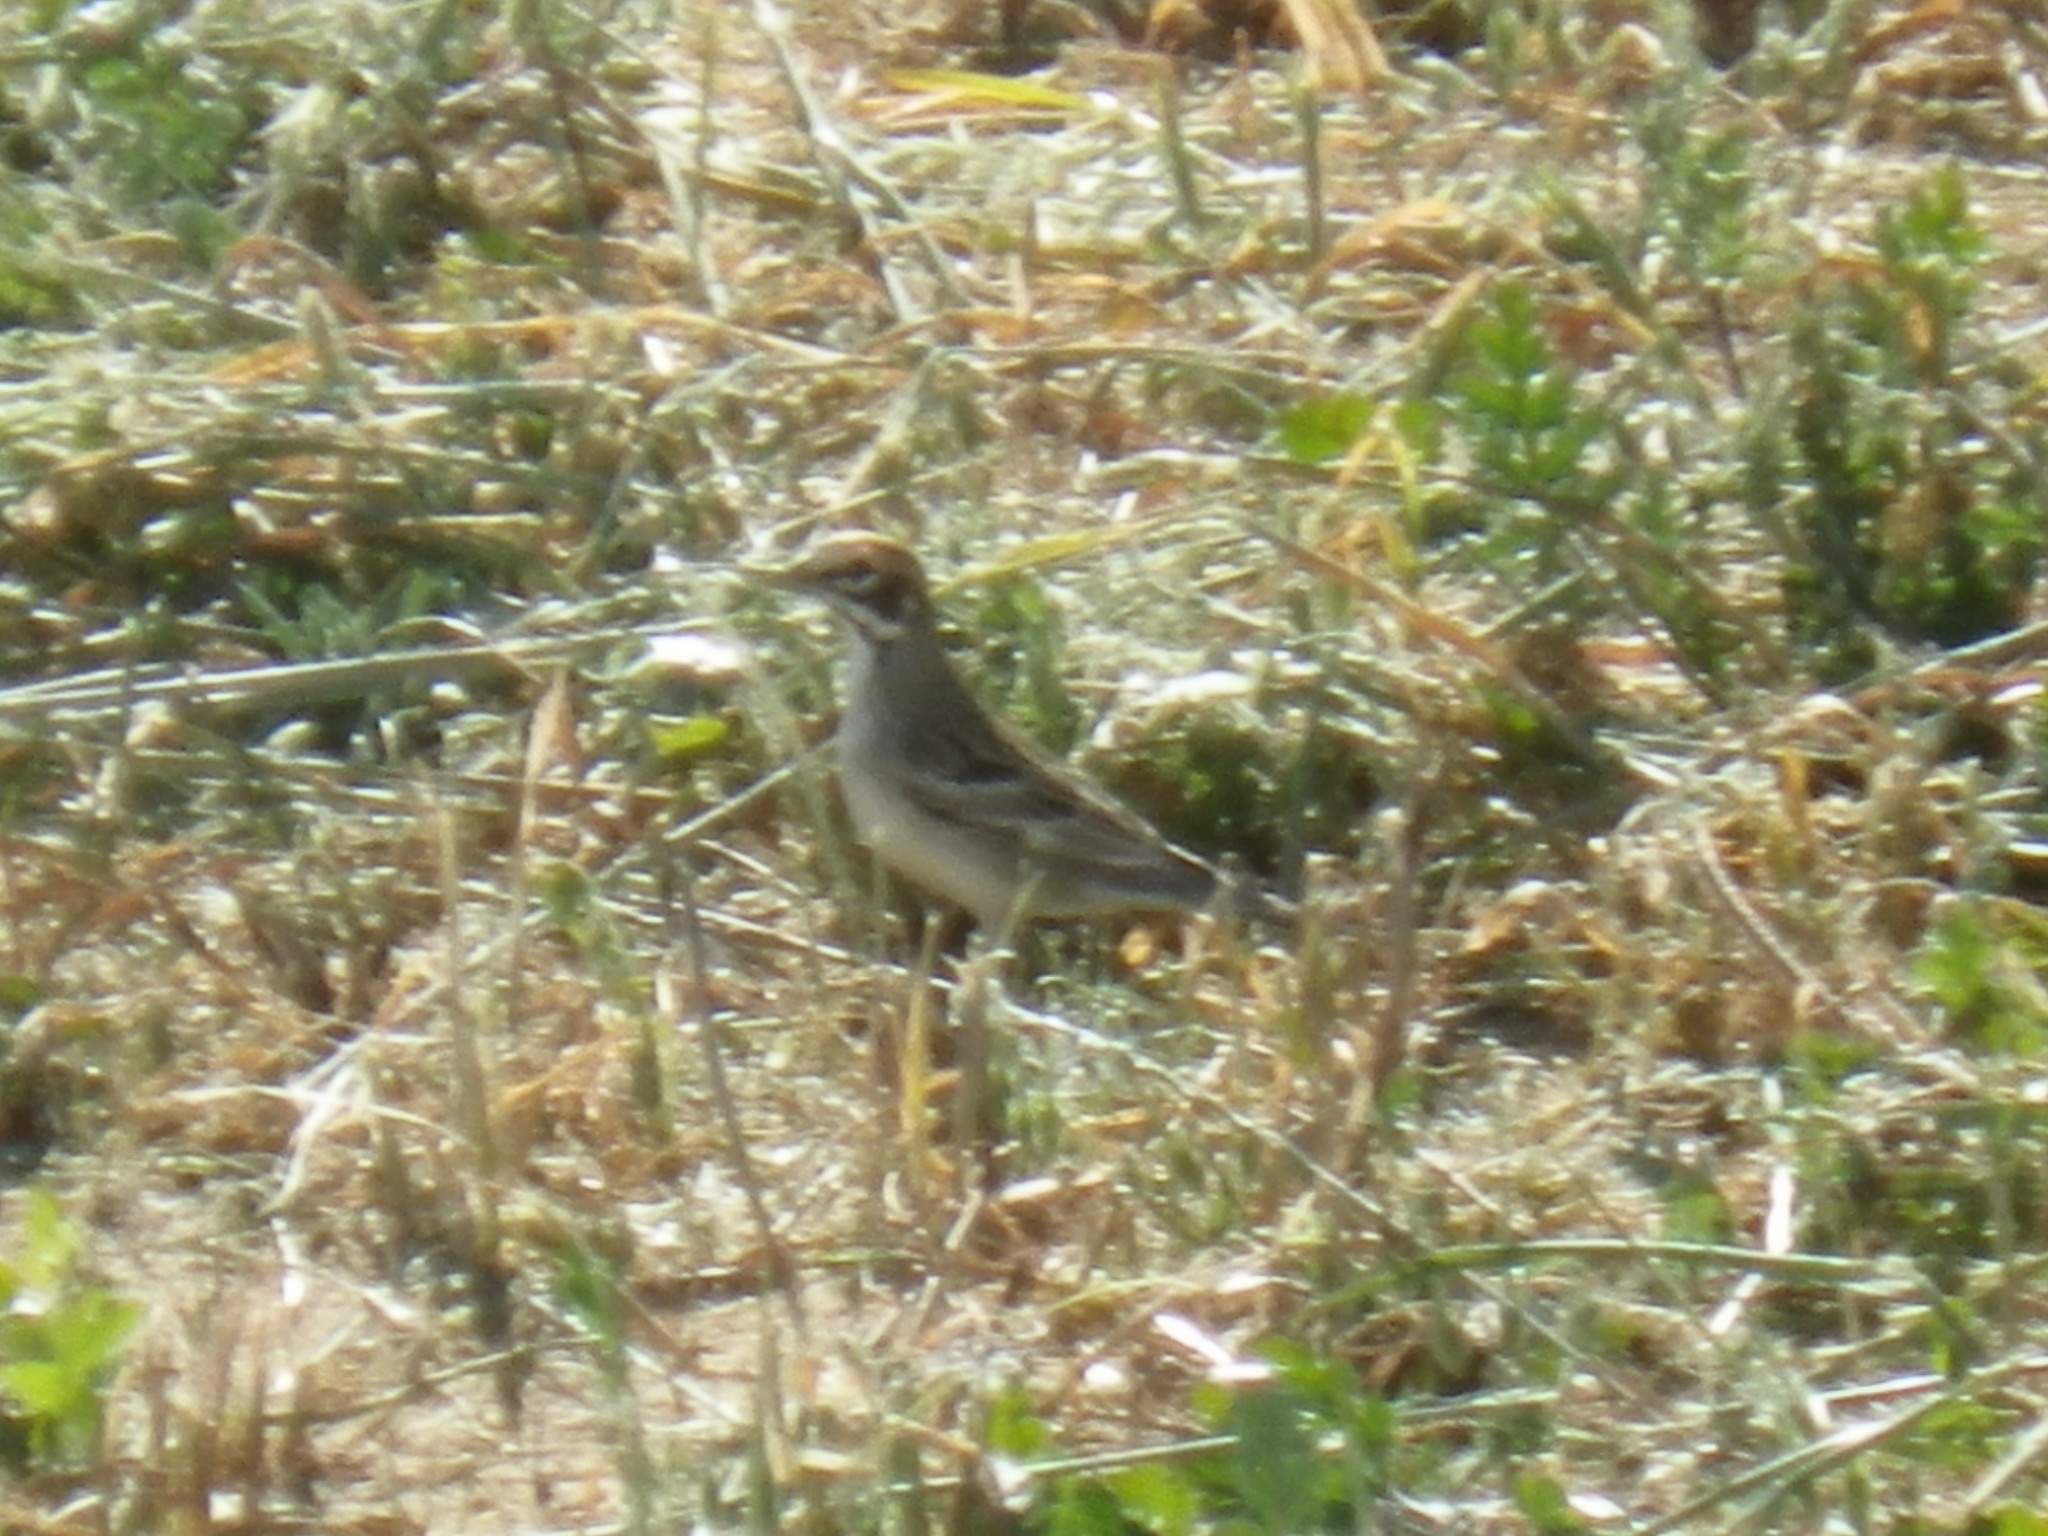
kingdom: Animalia
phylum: Chordata
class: Aves
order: Passeriformes
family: Passerellidae
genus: Chondestes
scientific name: Chondestes grammacus
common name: Lark sparrow
